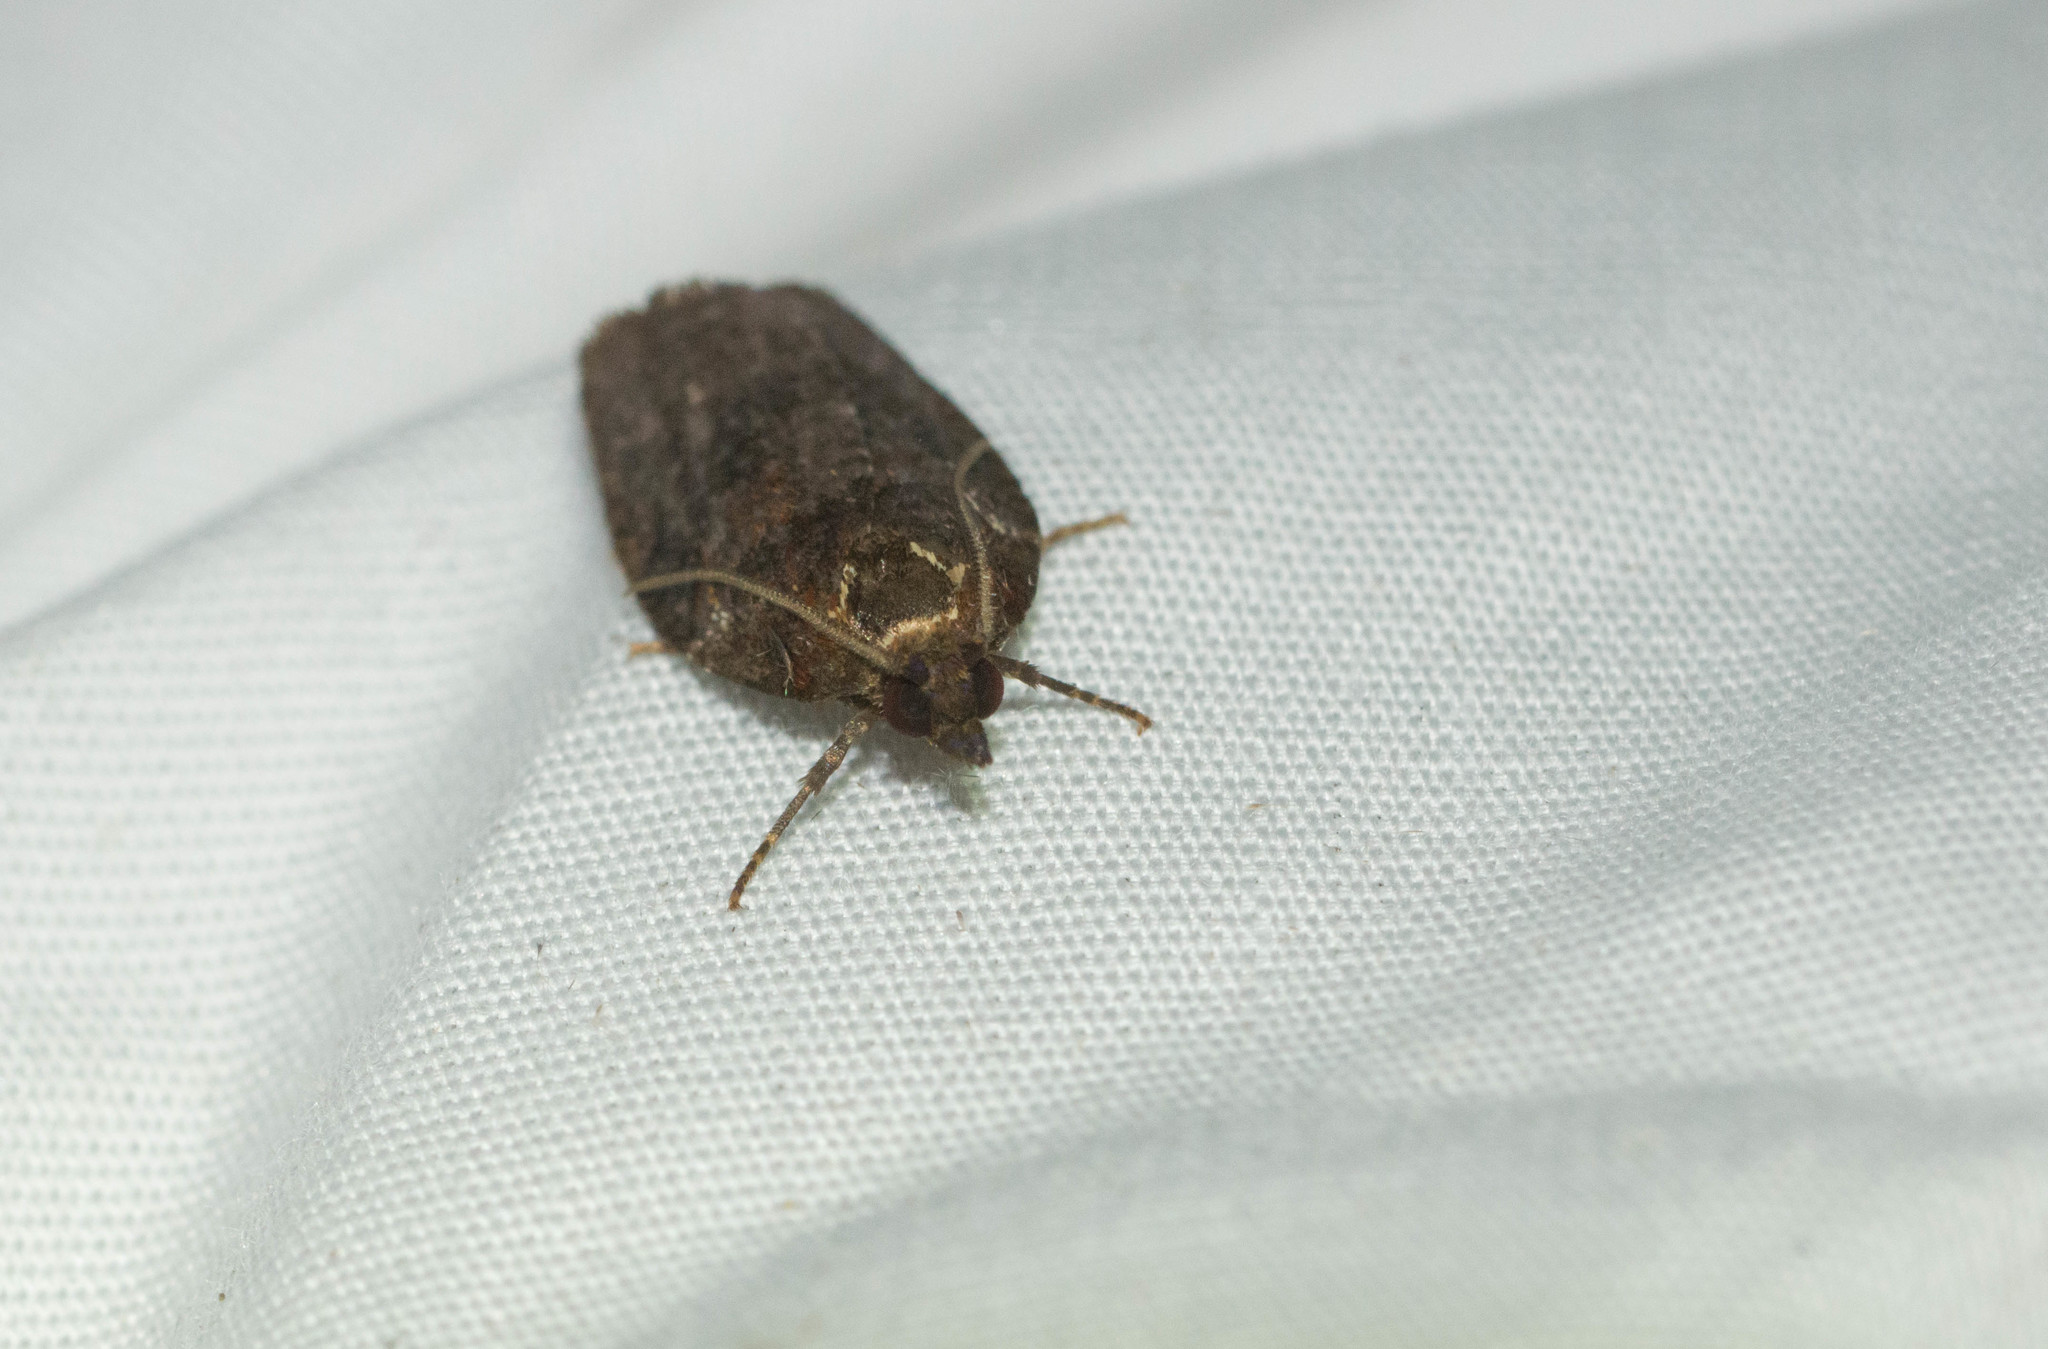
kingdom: Animalia
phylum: Arthropoda
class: Insecta
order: Lepidoptera
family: Tortricidae
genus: Spheterista
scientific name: Spheterista pleonectes
